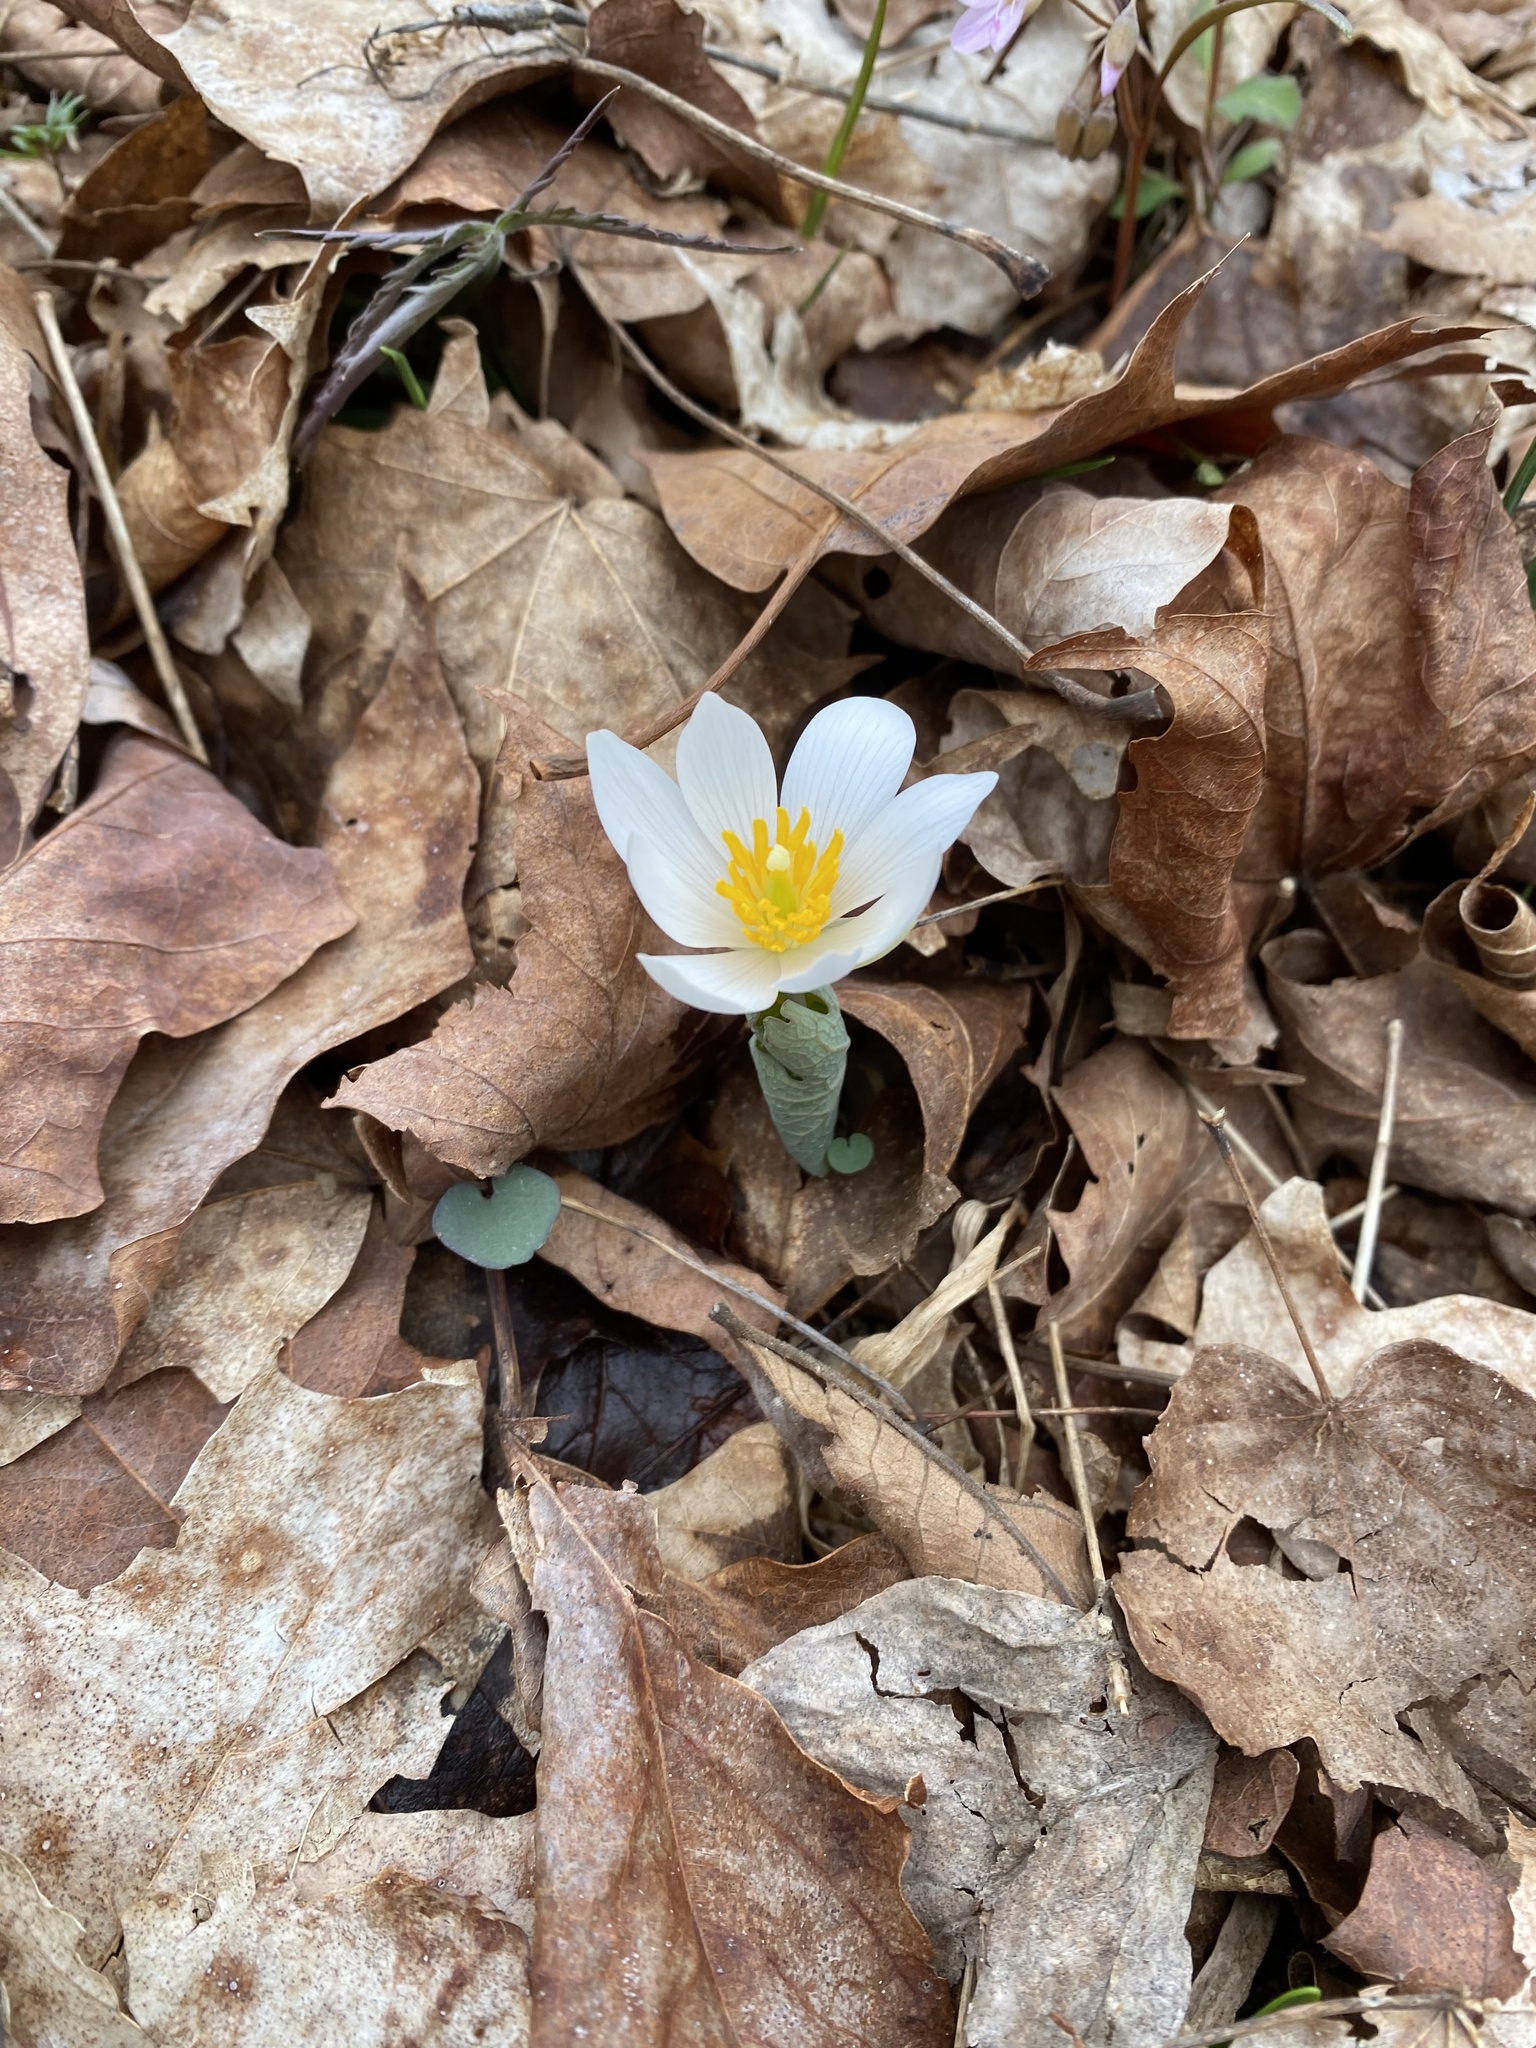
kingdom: Plantae
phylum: Tracheophyta
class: Magnoliopsida
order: Ranunculales
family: Papaveraceae
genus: Sanguinaria
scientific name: Sanguinaria canadensis
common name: Bloodroot
